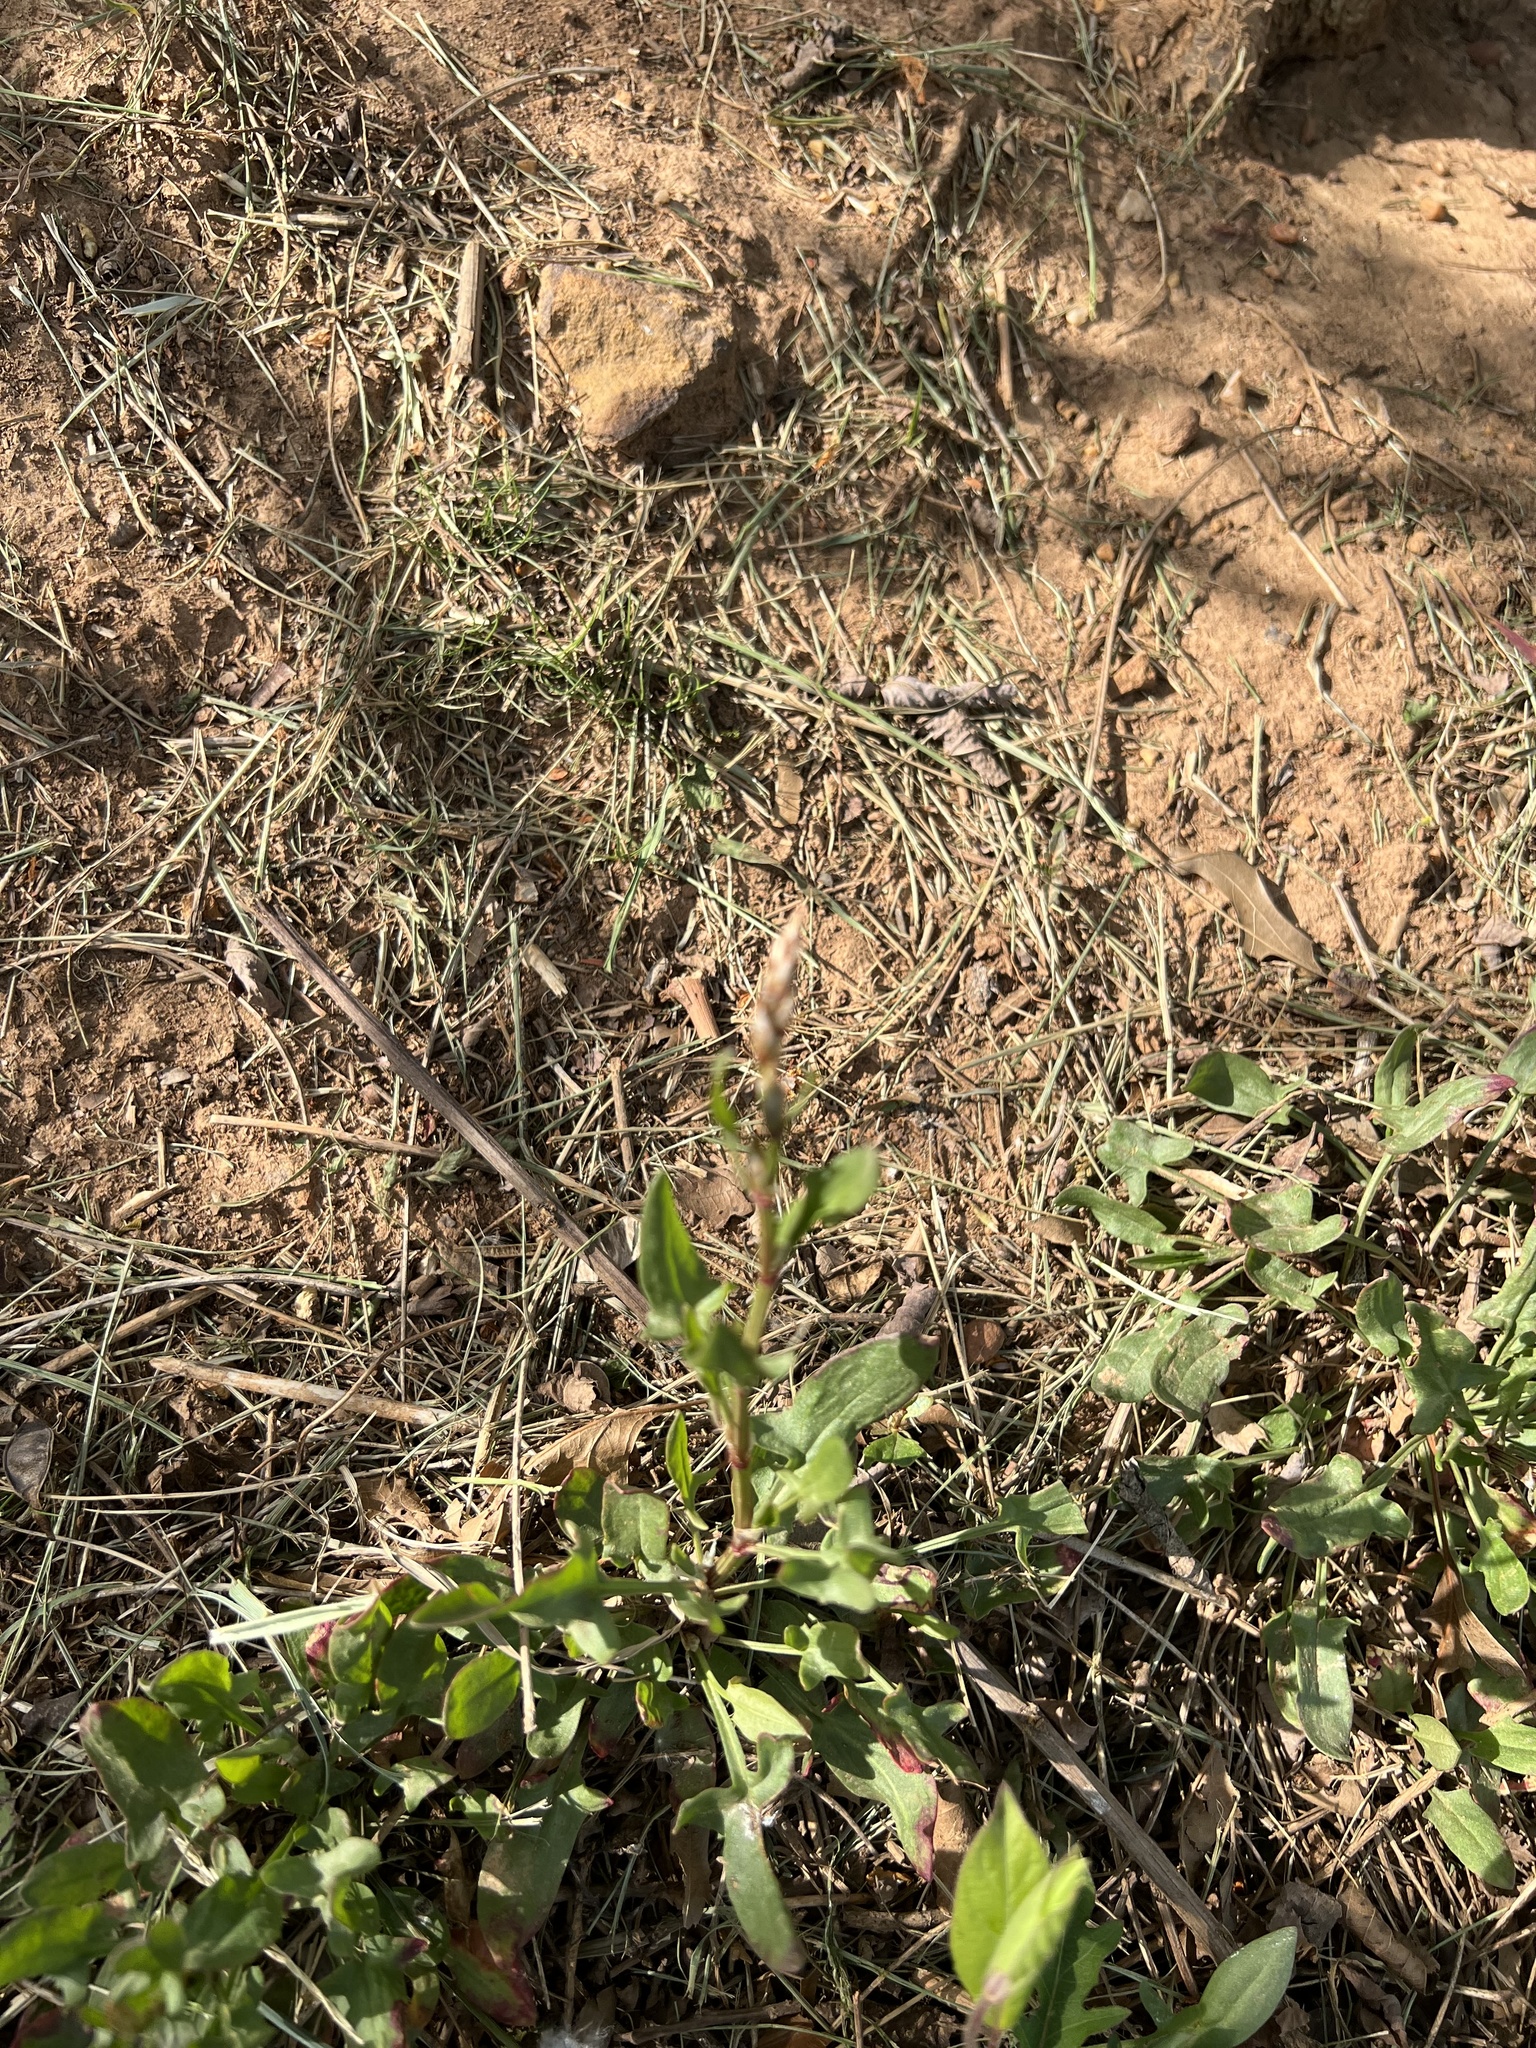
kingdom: Plantae
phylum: Tracheophyta
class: Magnoliopsida
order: Caryophyllales
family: Polygonaceae
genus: Rumex
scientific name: Rumex acetosella
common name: Common sheep sorrel
